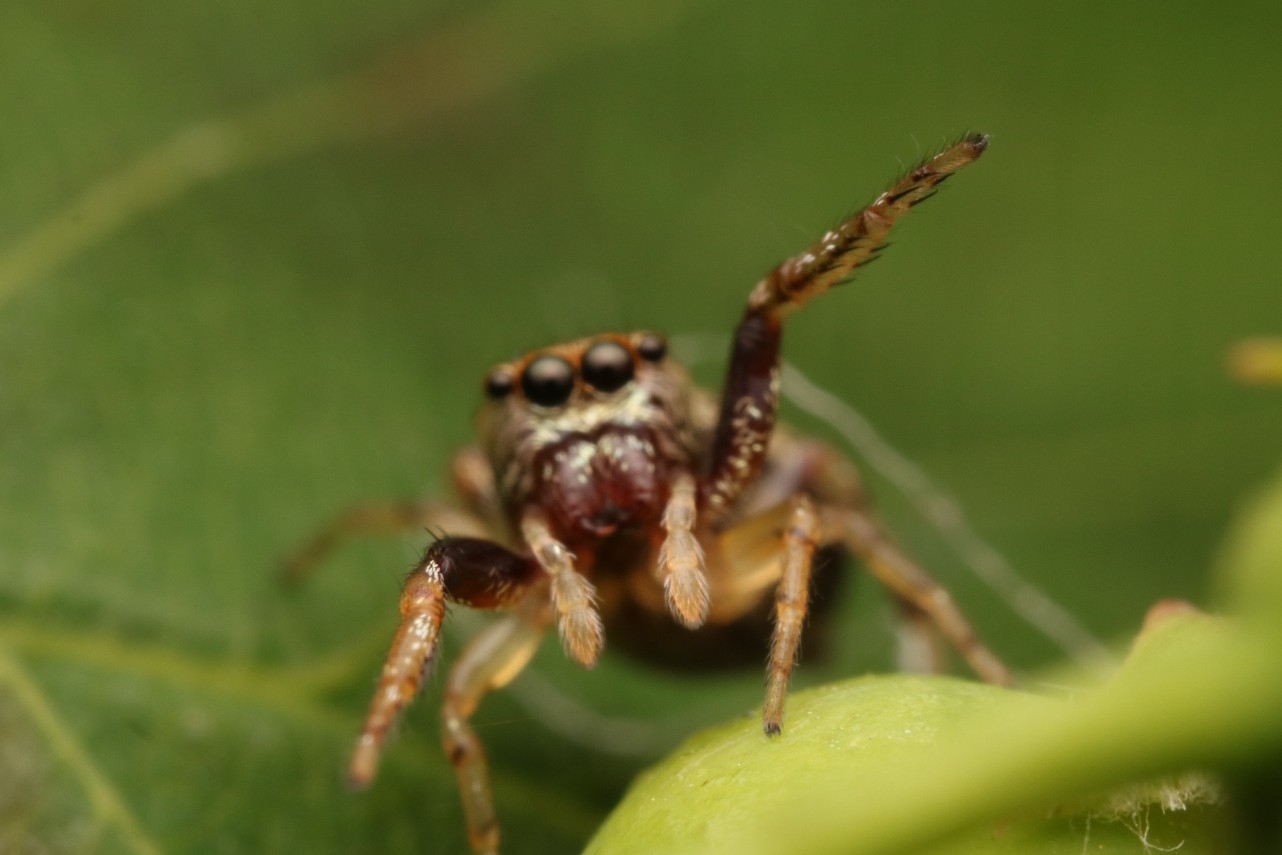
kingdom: Animalia
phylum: Arthropoda
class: Arachnida
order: Araneae
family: Salticidae
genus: Zygoballus
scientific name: Zygoballus rufipes
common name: Jumping spiders
